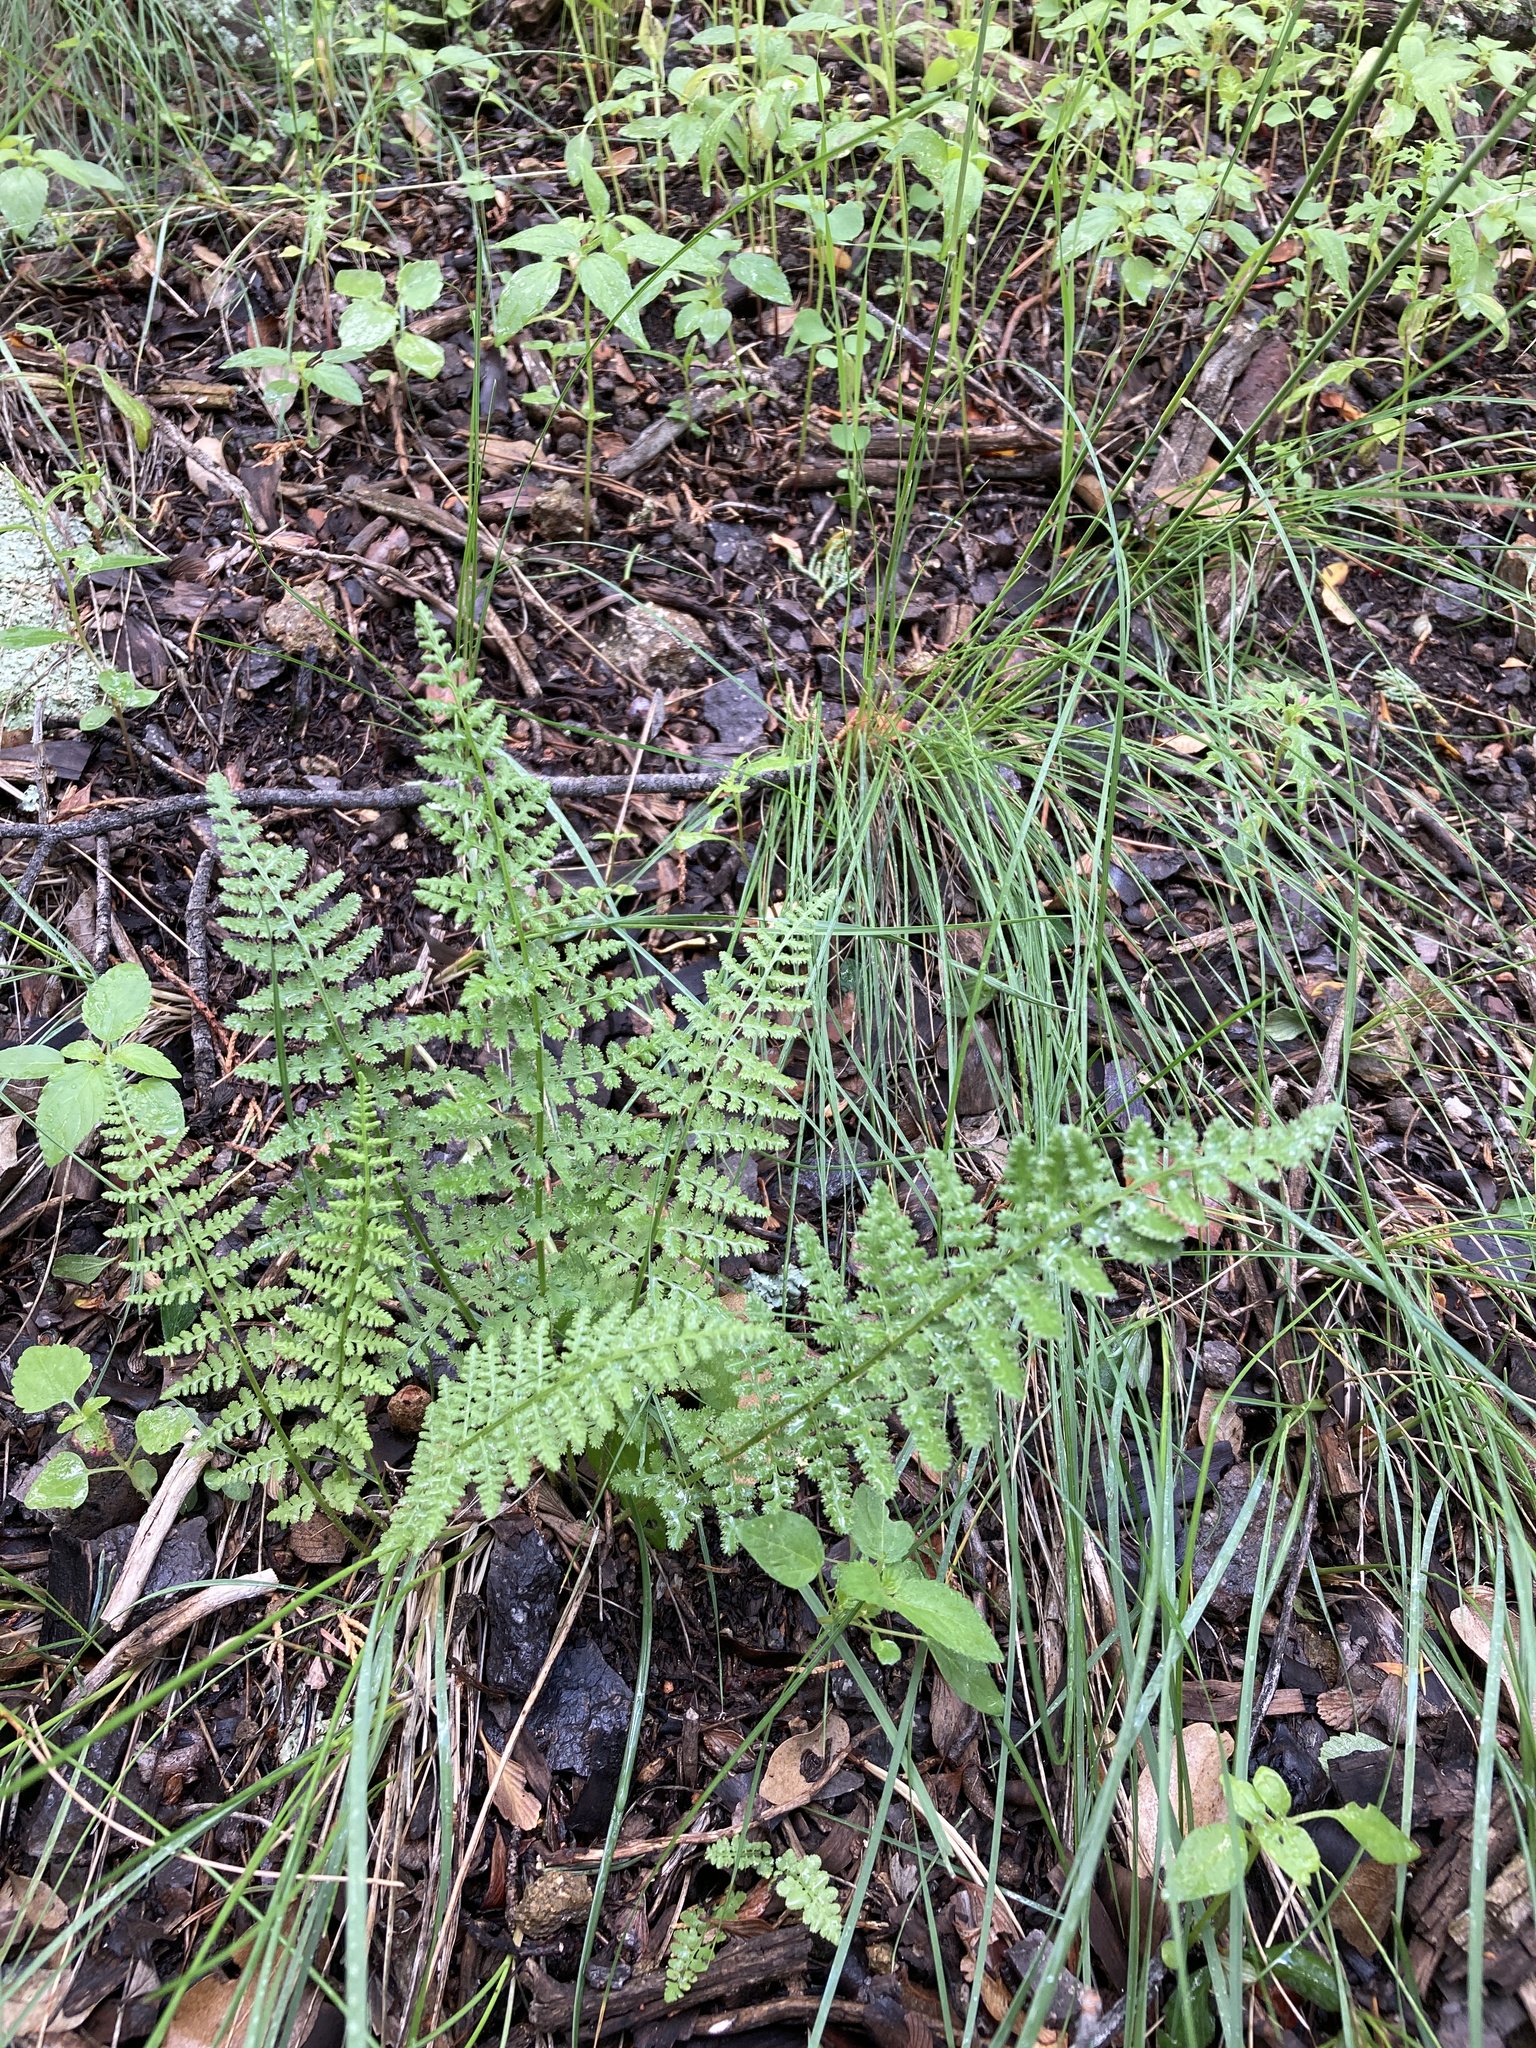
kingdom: Plantae
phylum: Tracheophyta
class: Polypodiopsida
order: Polypodiales
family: Woodsiaceae
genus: Physematium
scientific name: Physematium phillipsii
